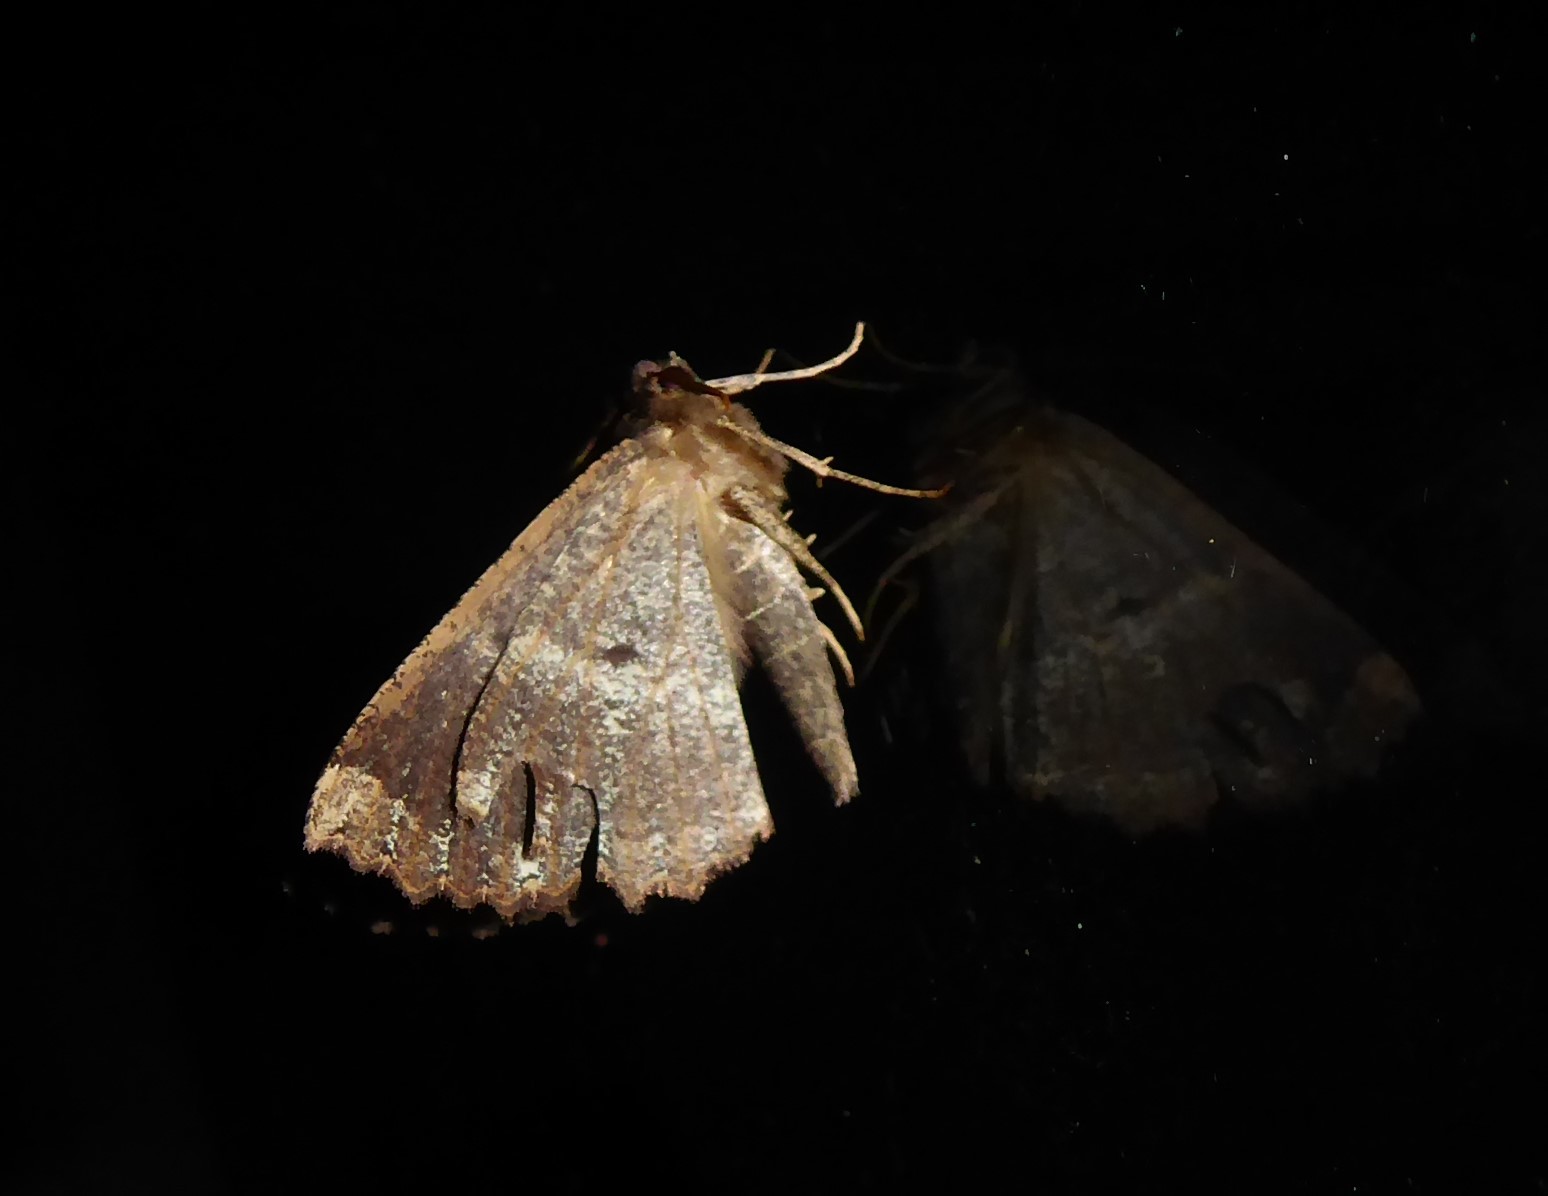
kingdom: Animalia
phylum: Arthropoda
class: Insecta
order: Lepidoptera
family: Geometridae
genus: Gellonia
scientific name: Gellonia dejectaria
